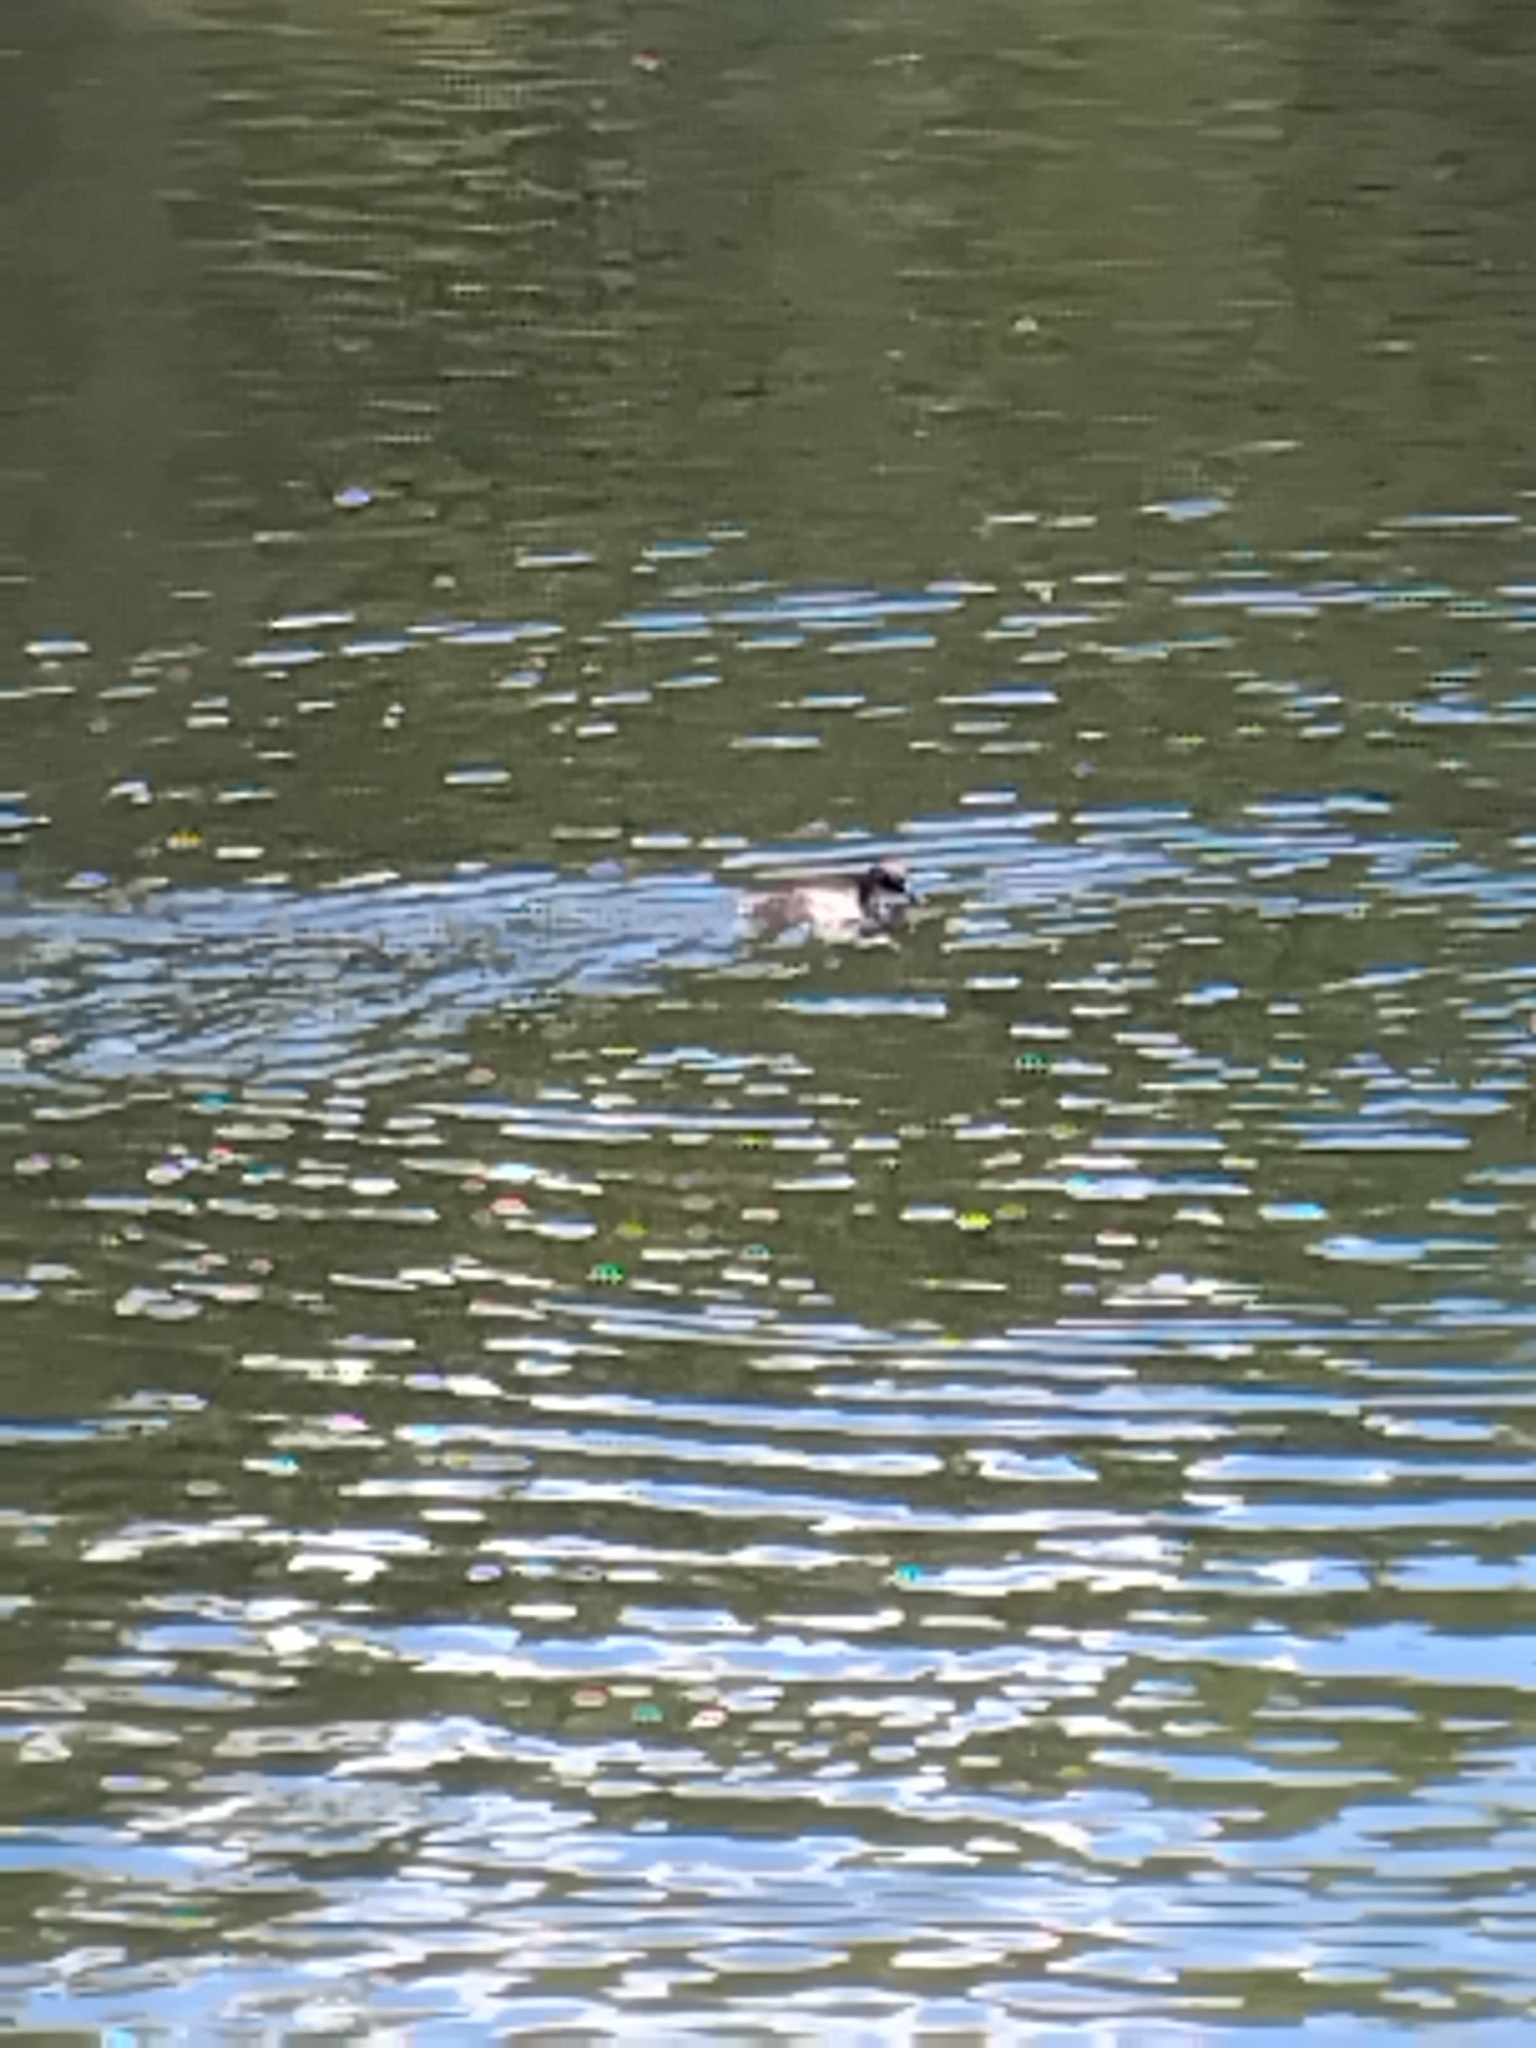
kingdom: Animalia
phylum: Chordata
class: Aves
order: Podicipediformes
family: Podicipedidae
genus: Tachybaptus
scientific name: Tachybaptus novaehollandiae
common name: Australasian grebe
